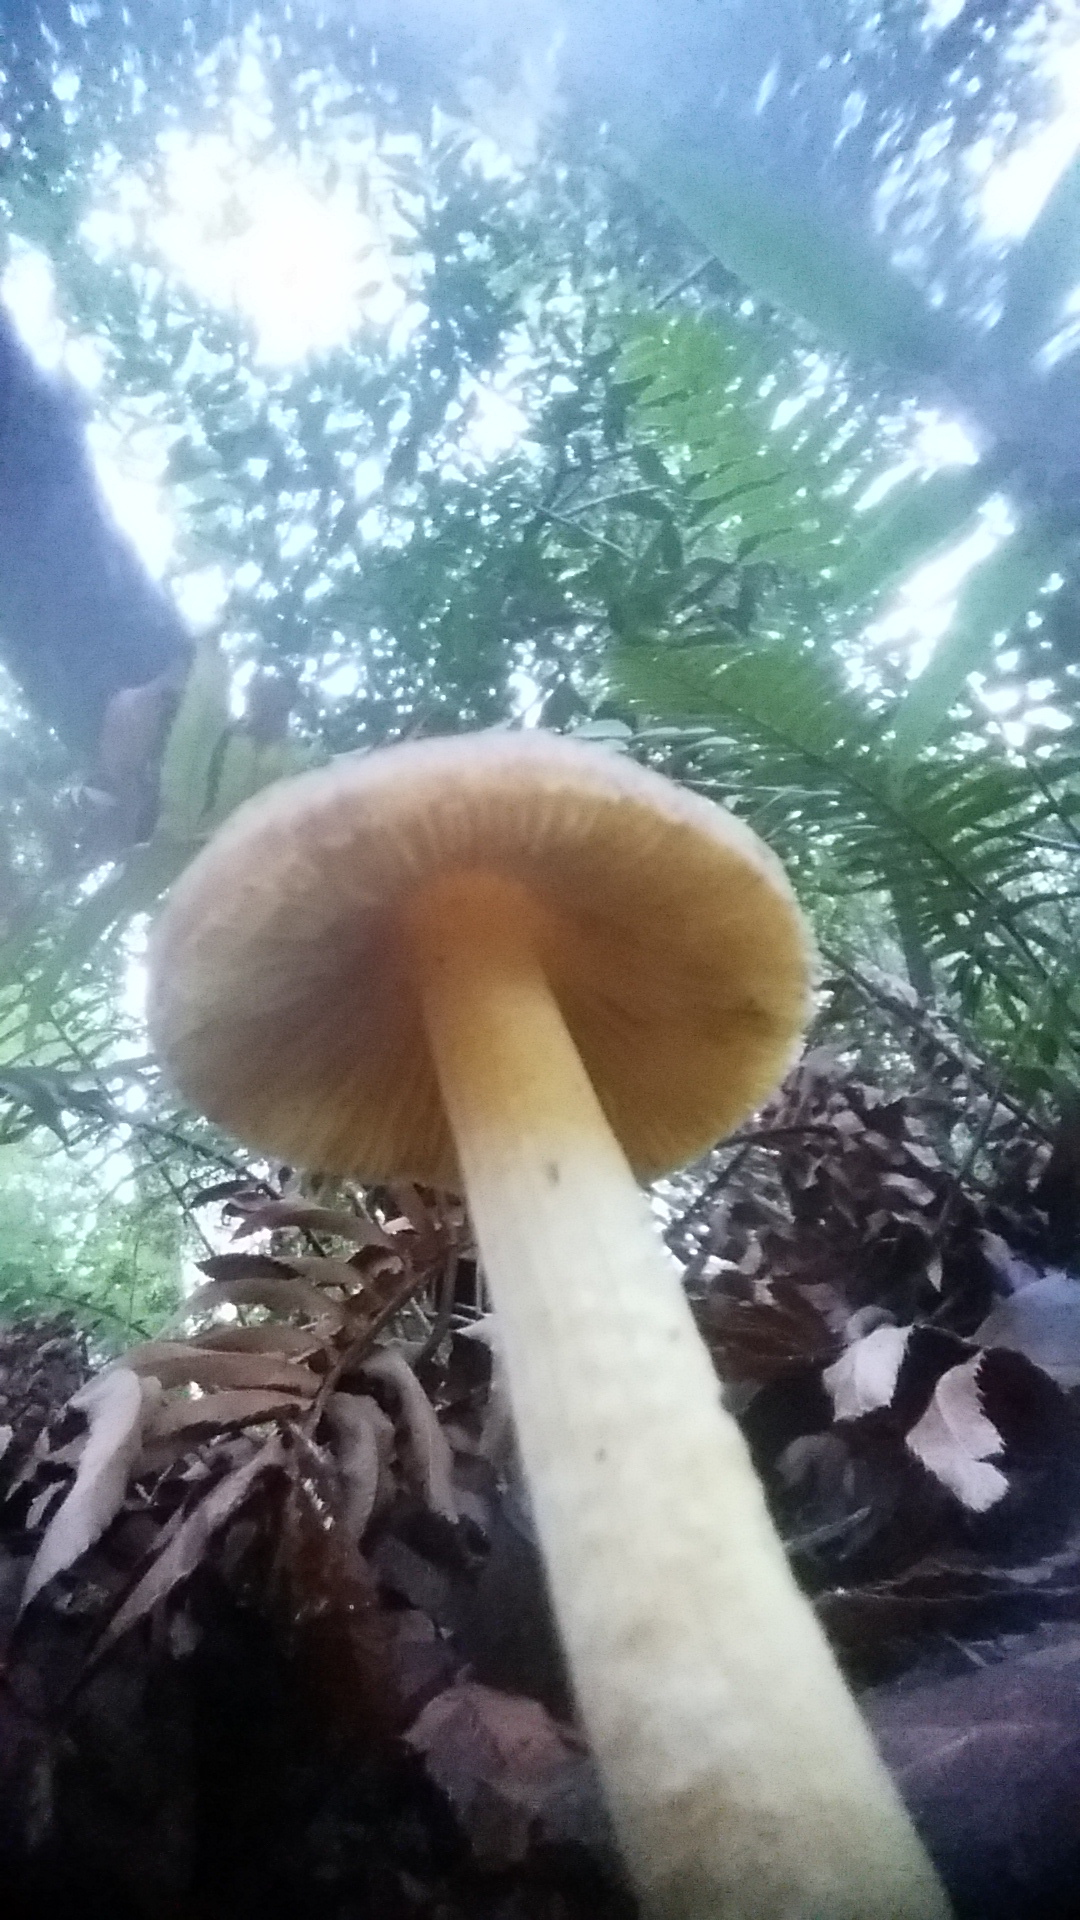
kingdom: Fungi
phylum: Basidiomycota
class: Agaricomycetes
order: Agaricales
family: Inocybaceae
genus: Inocybe
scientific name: Inocybe mycenoides
